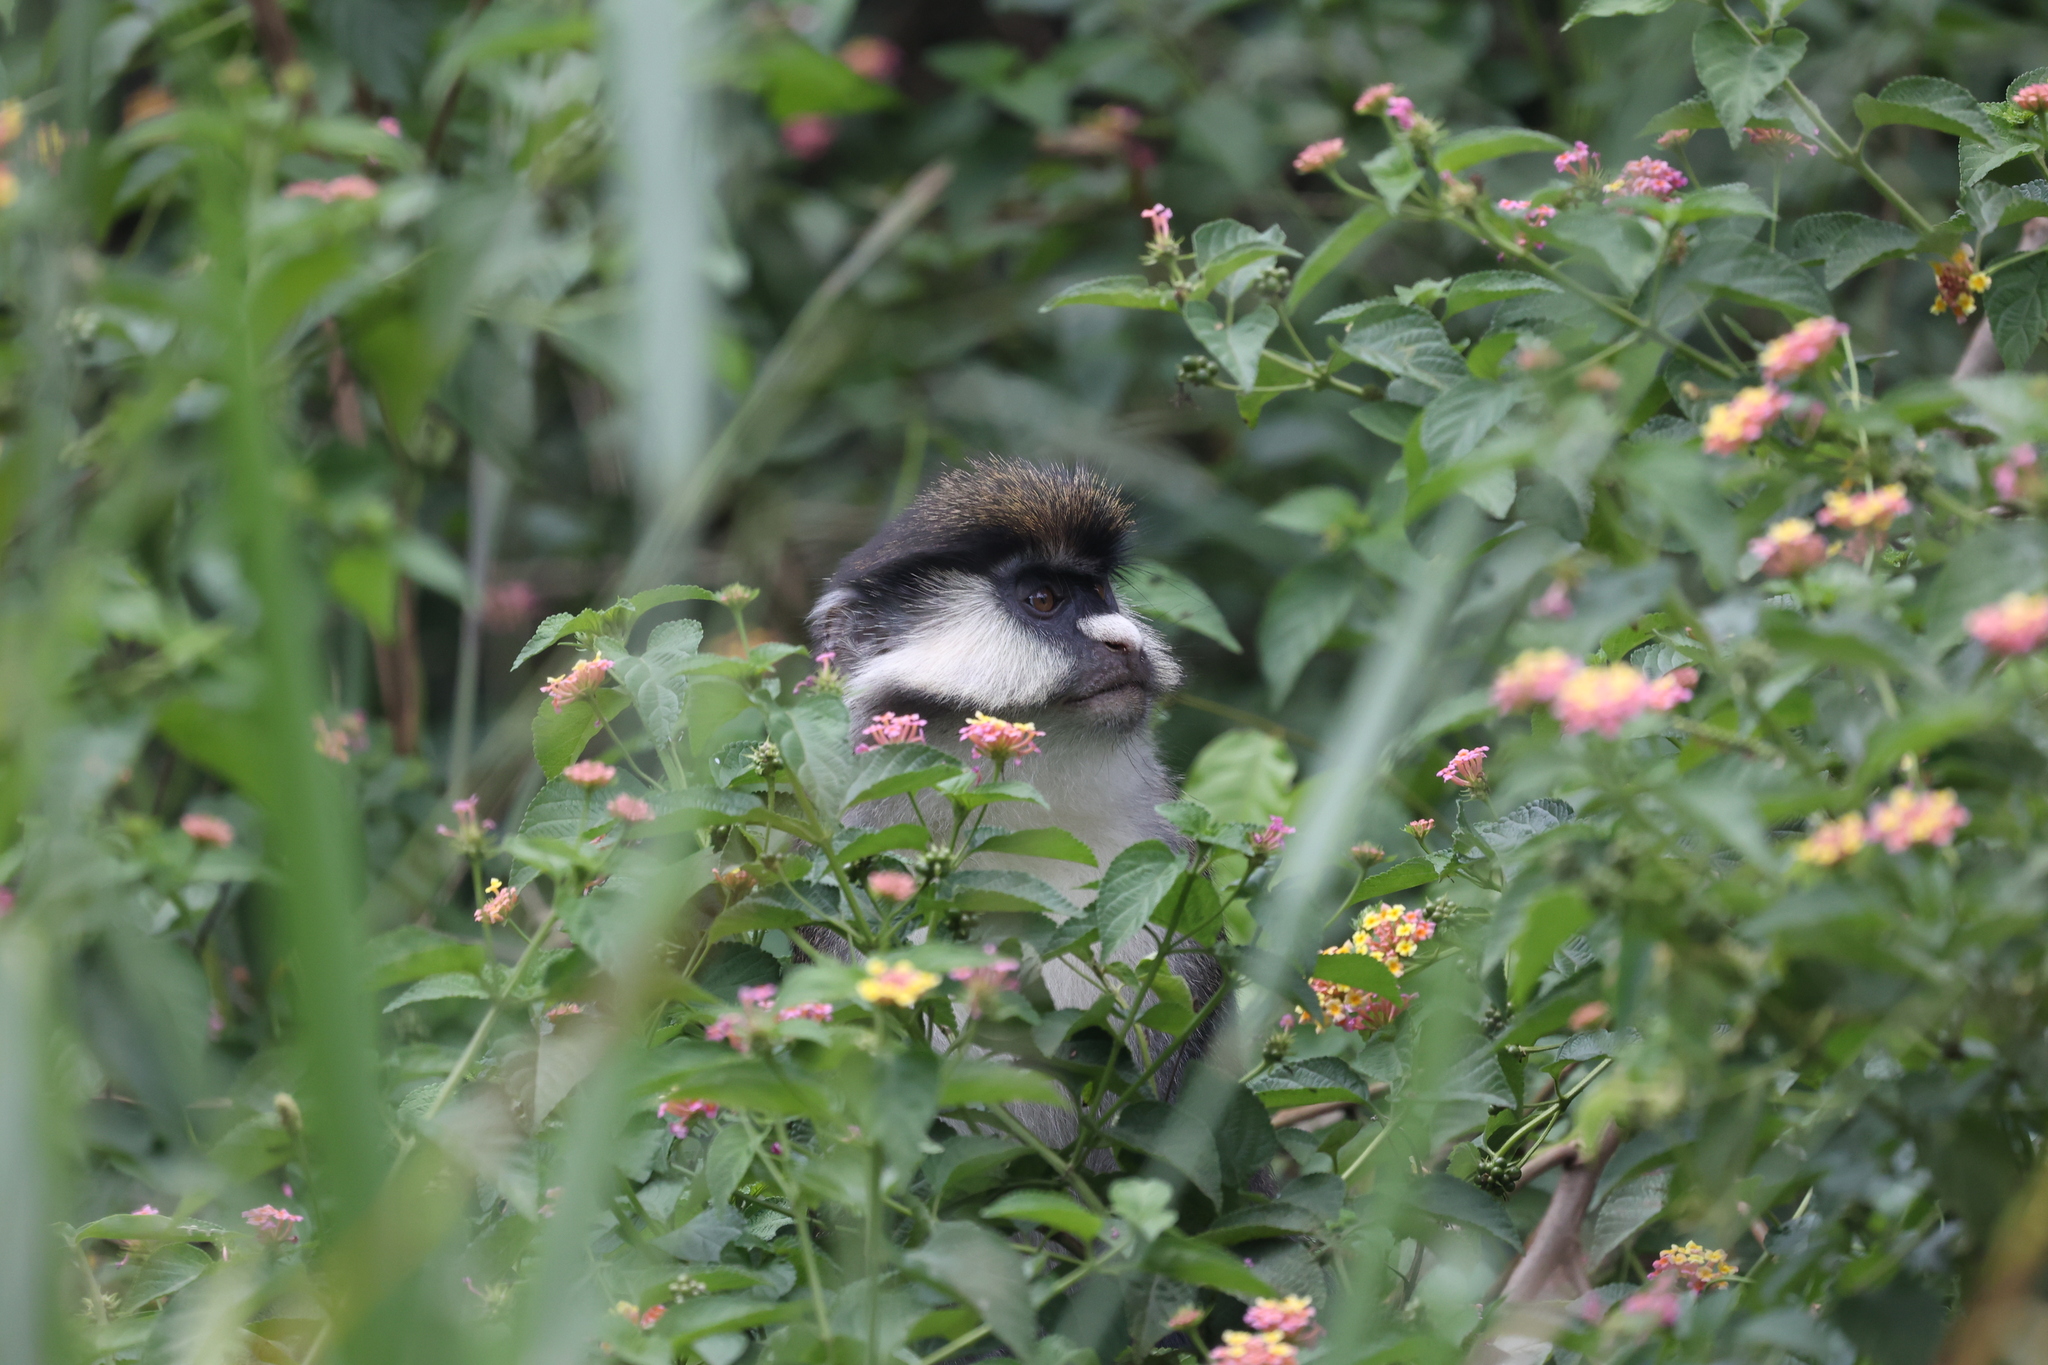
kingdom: Animalia
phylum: Chordata
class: Mammalia
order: Primates
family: Cercopithecidae
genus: Cercopithecus
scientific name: Cercopithecus ascanius
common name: Red-tailed monkey
